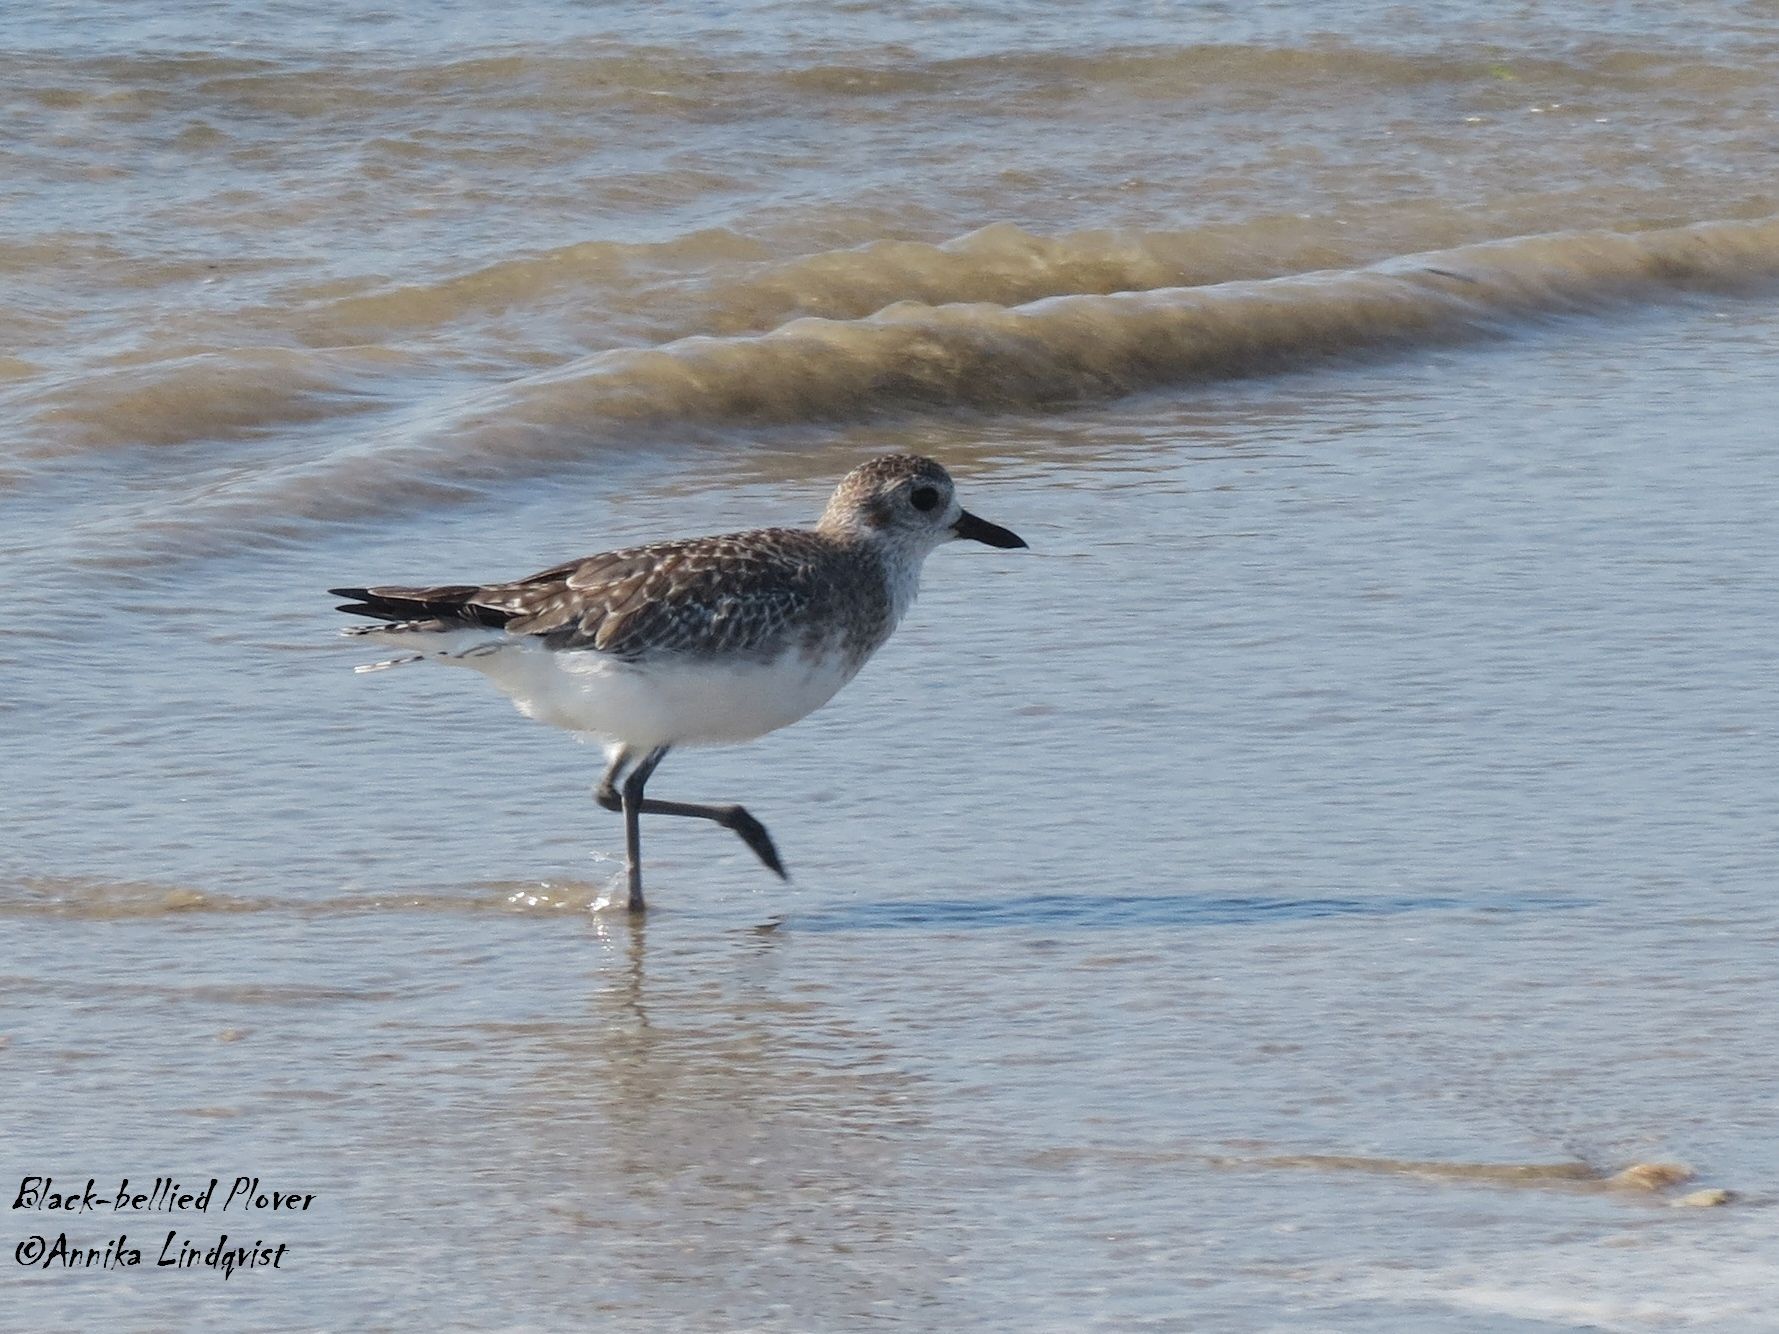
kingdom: Animalia
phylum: Chordata
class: Aves
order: Charadriiformes
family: Charadriidae
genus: Pluvialis
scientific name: Pluvialis squatarola
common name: Grey plover
